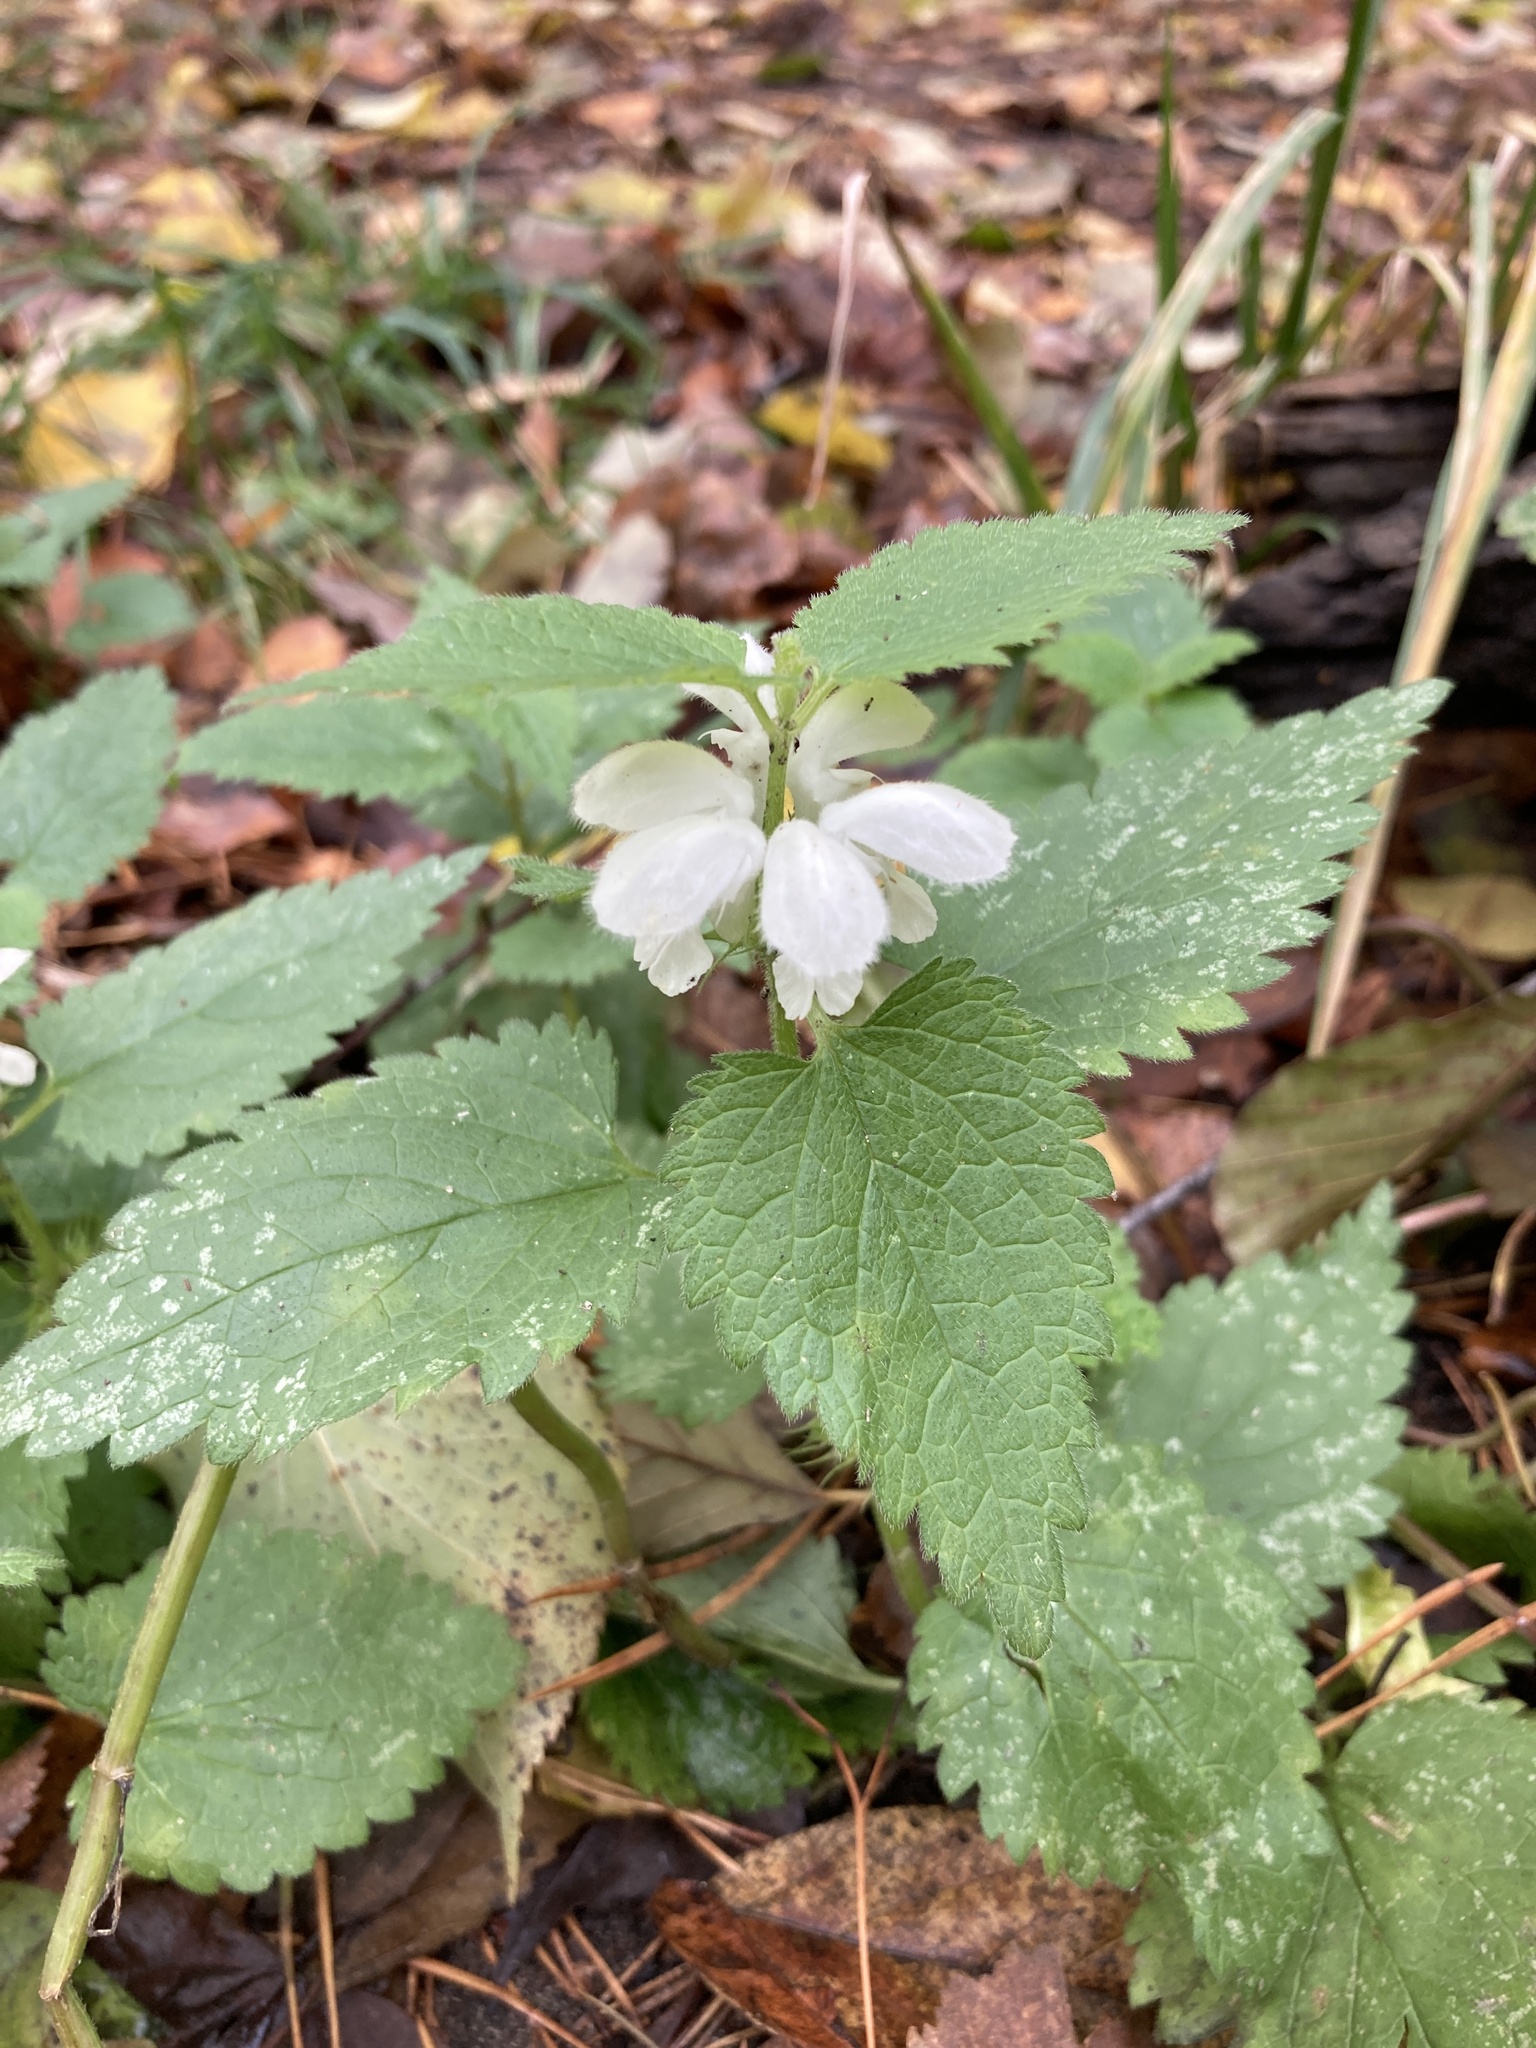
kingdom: Plantae
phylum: Tracheophyta
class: Magnoliopsida
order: Lamiales
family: Lamiaceae
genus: Lamium
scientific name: Lamium album
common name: White dead-nettle
